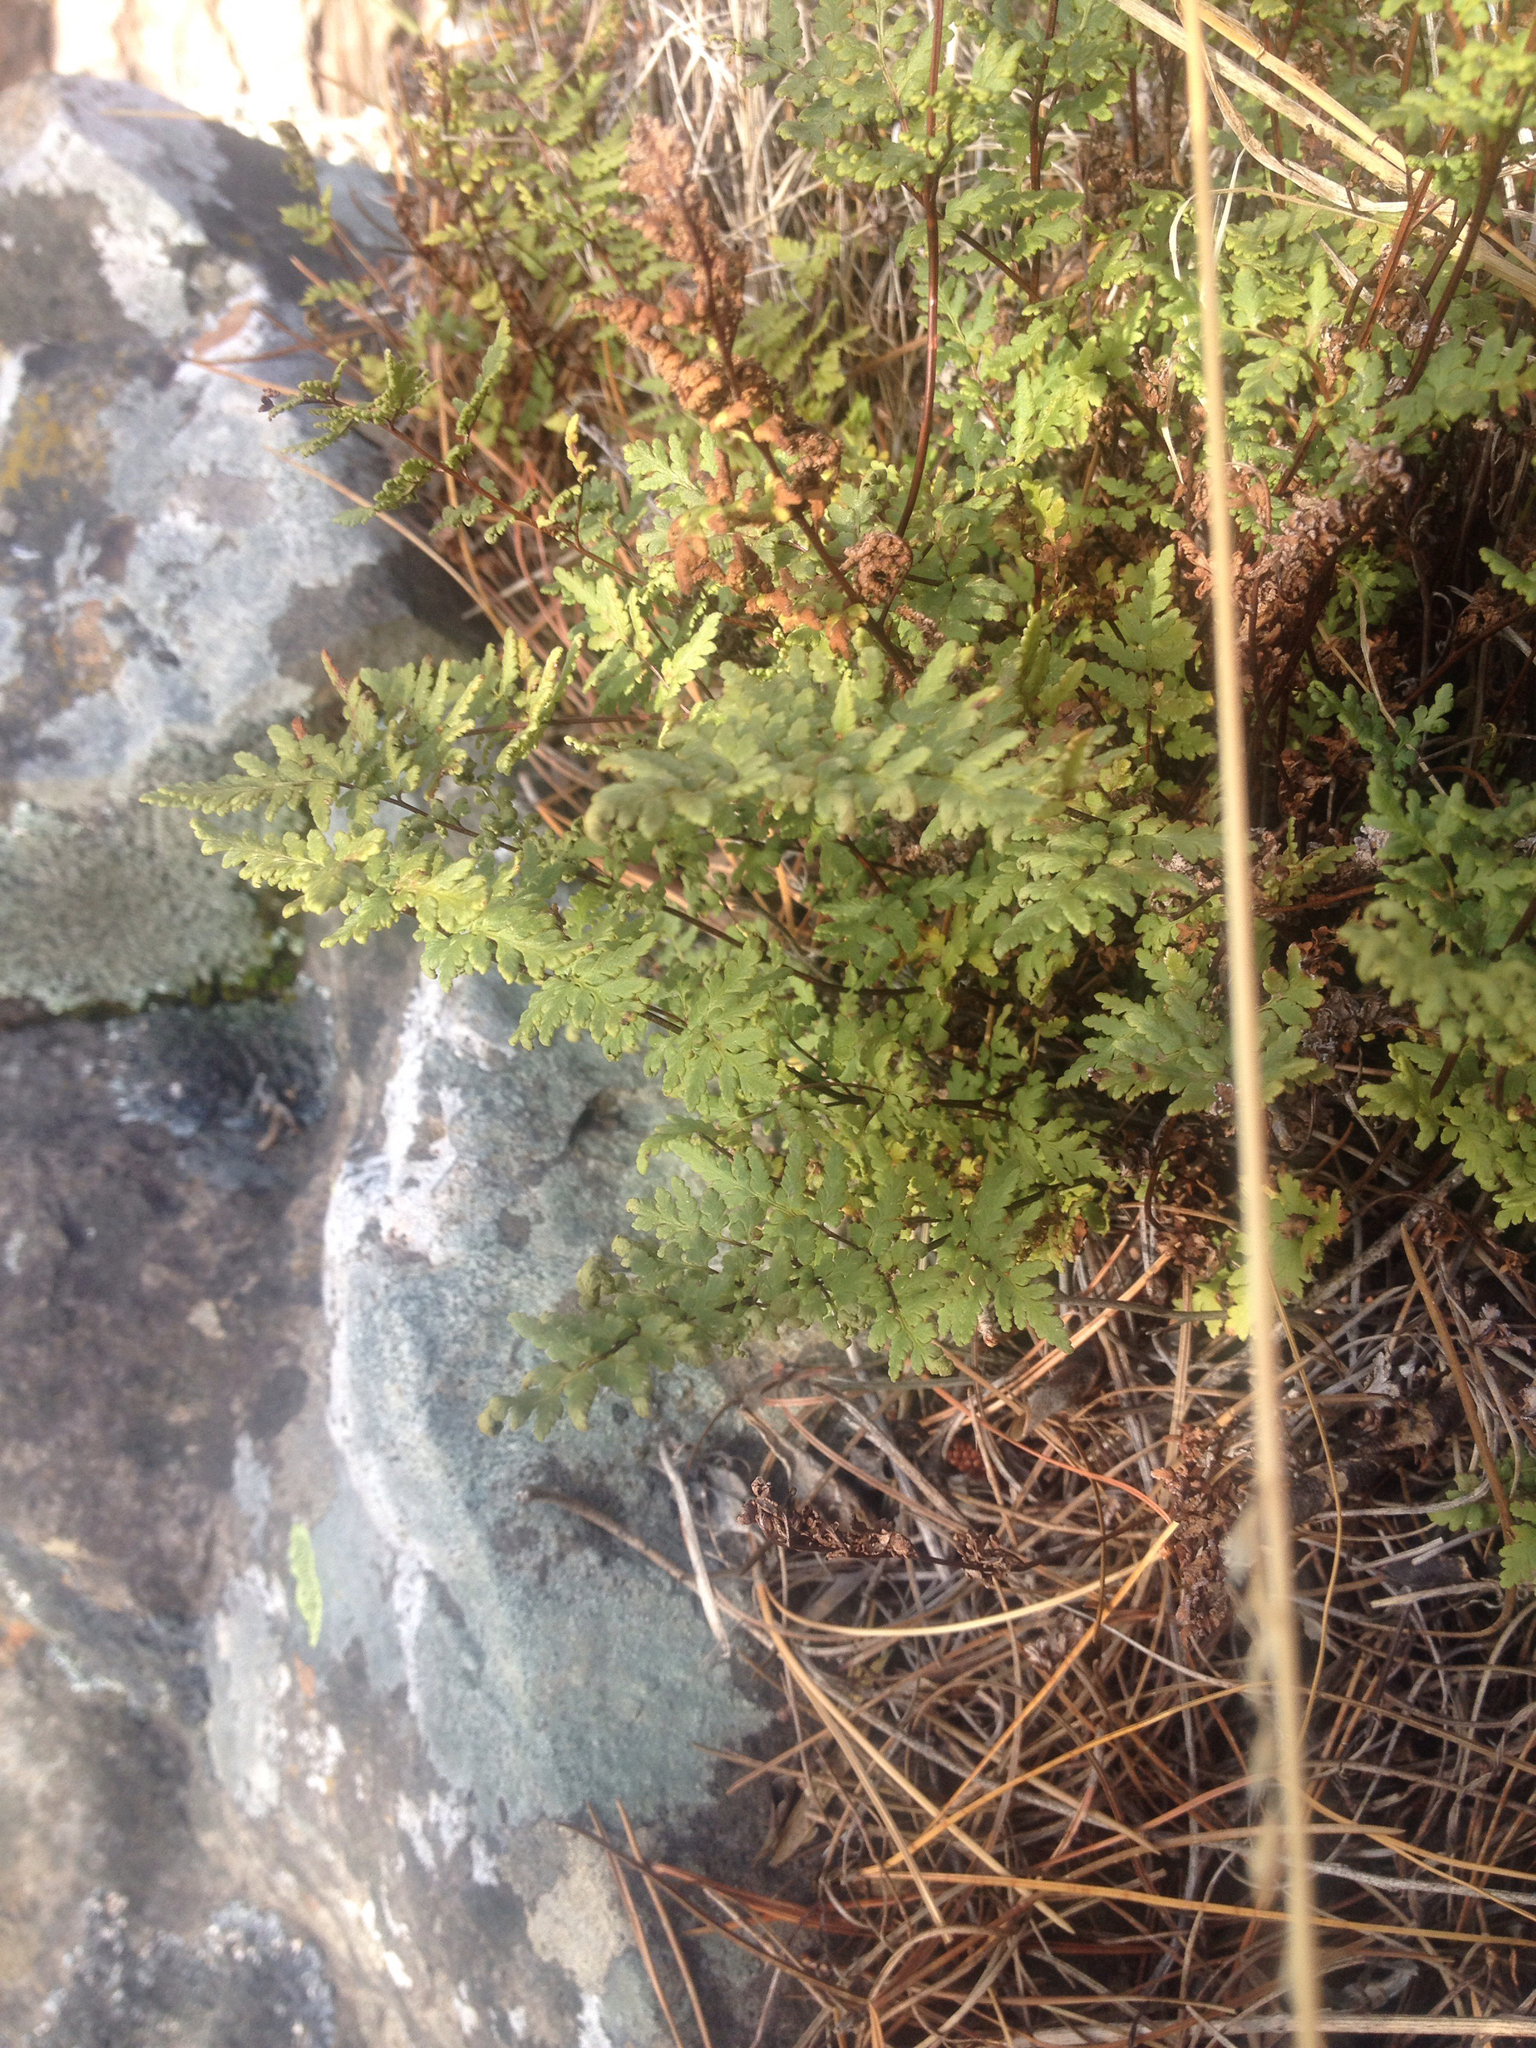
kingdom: Plantae
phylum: Tracheophyta
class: Polypodiopsida
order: Polypodiales
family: Pteridaceae
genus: Cheilanthes
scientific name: Cheilanthes sieberi
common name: Mulga fern
